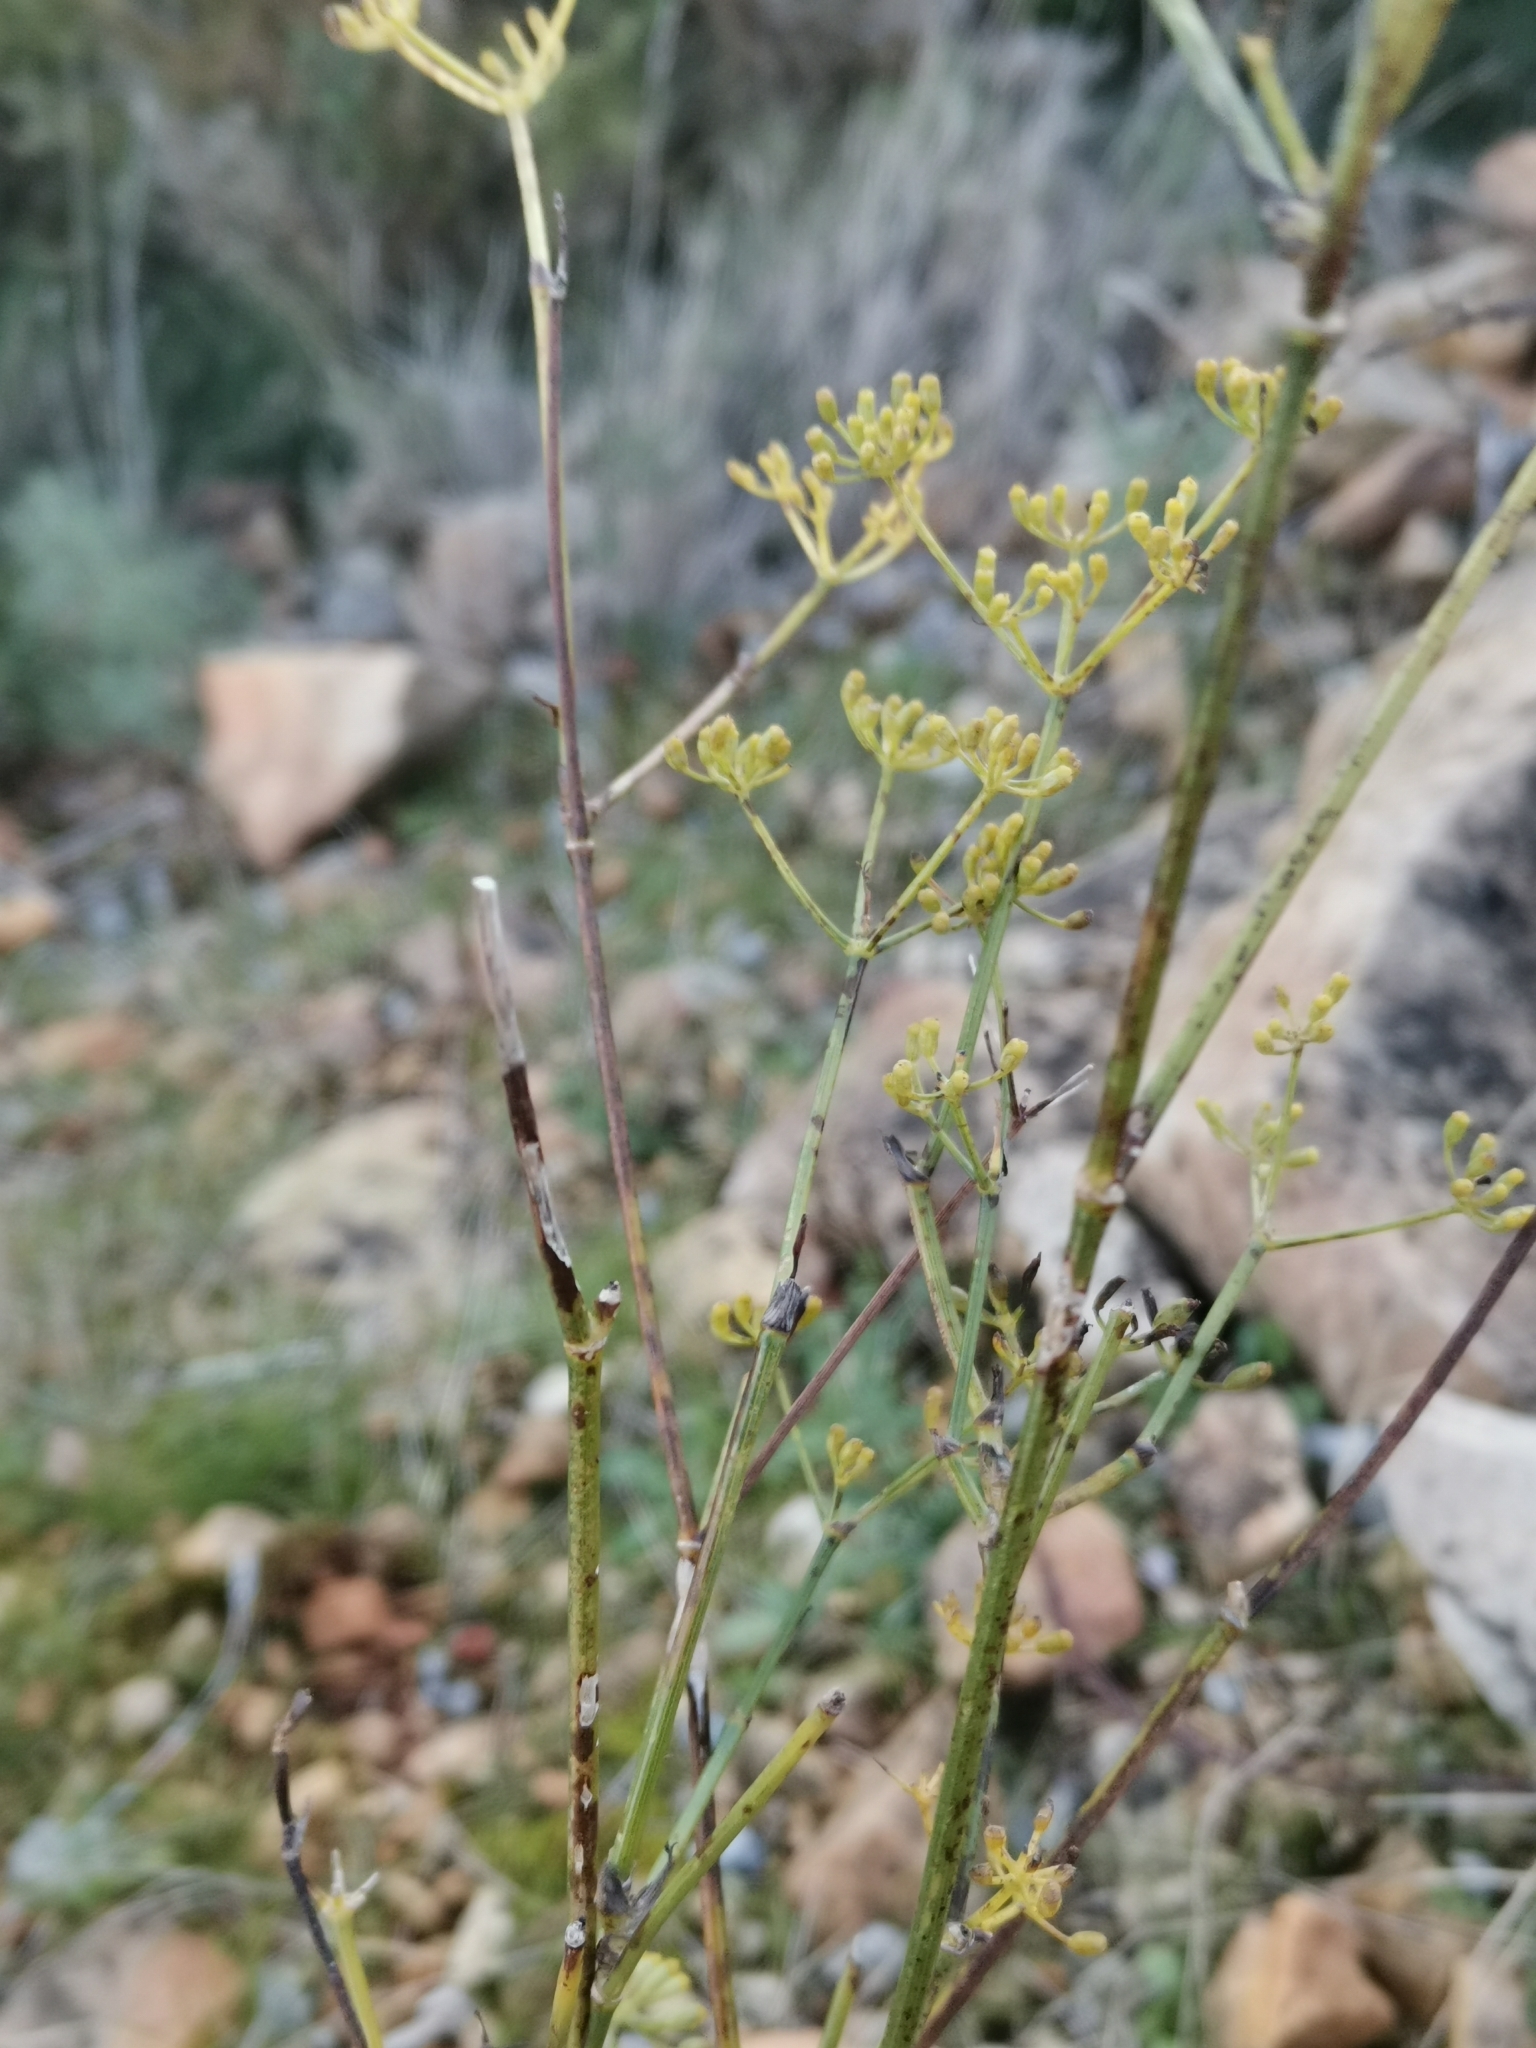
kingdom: Plantae
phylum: Tracheophyta
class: Magnoliopsida
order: Apiales
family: Apiaceae
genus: Foeniculum
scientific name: Foeniculum vulgare
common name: Fennel
